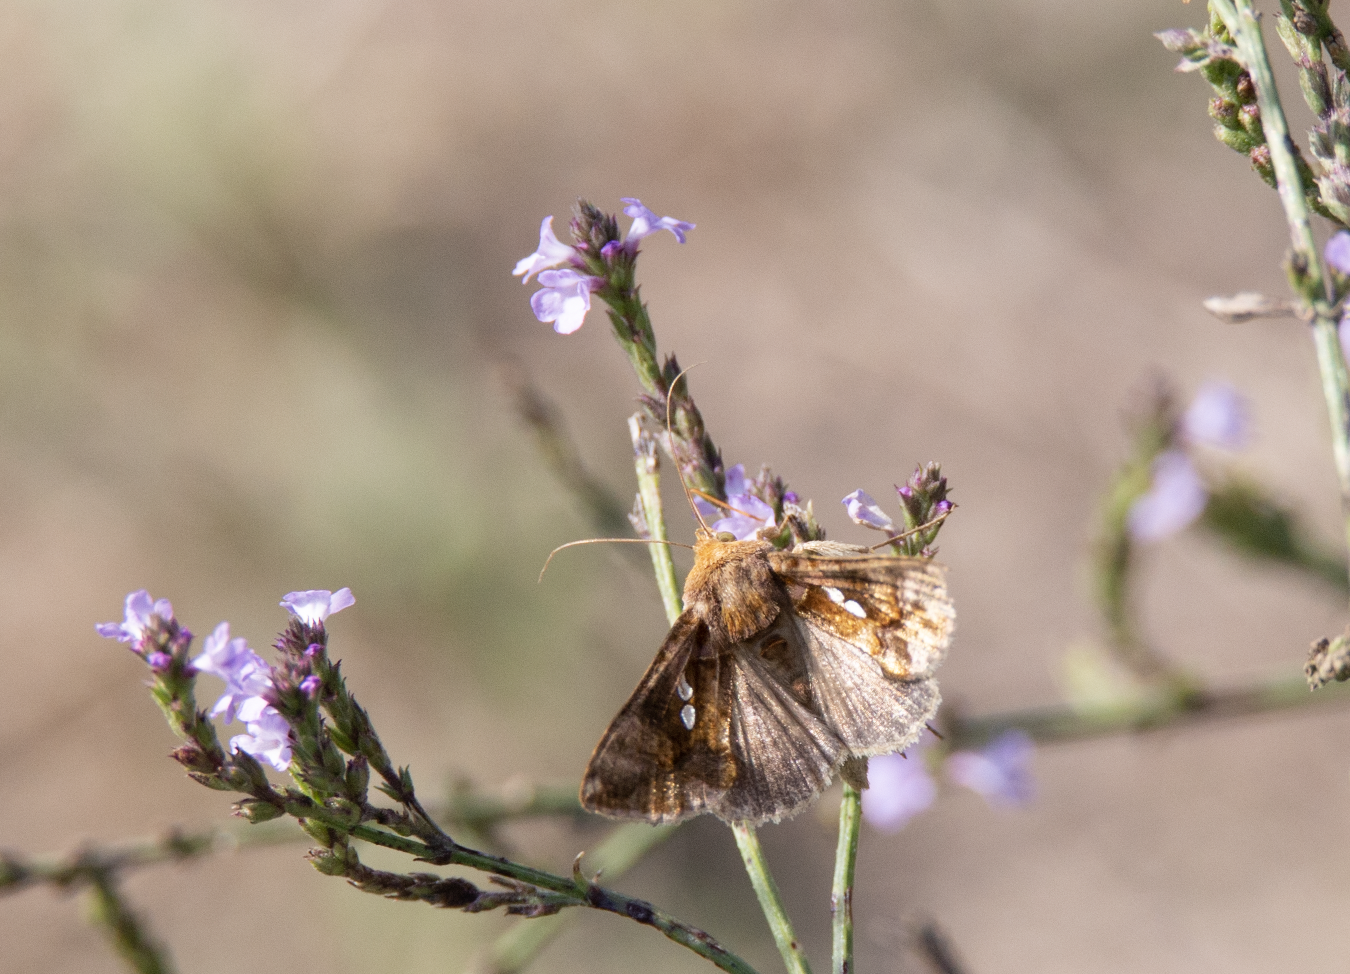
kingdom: Animalia
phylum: Arthropoda
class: Insecta
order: Lepidoptera
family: Noctuidae
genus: Chrysodeixis
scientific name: Chrysodeixis chalcites
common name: Golden twin-spot
